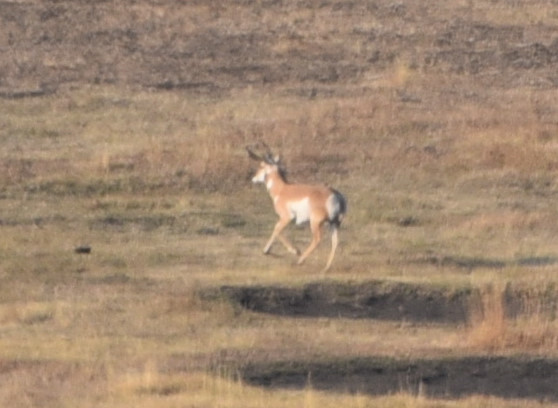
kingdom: Animalia
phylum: Chordata
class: Mammalia
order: Artiodactyla
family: Antilocapridae
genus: Antilocapra
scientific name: Antilocapra americana
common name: Pronghorn
